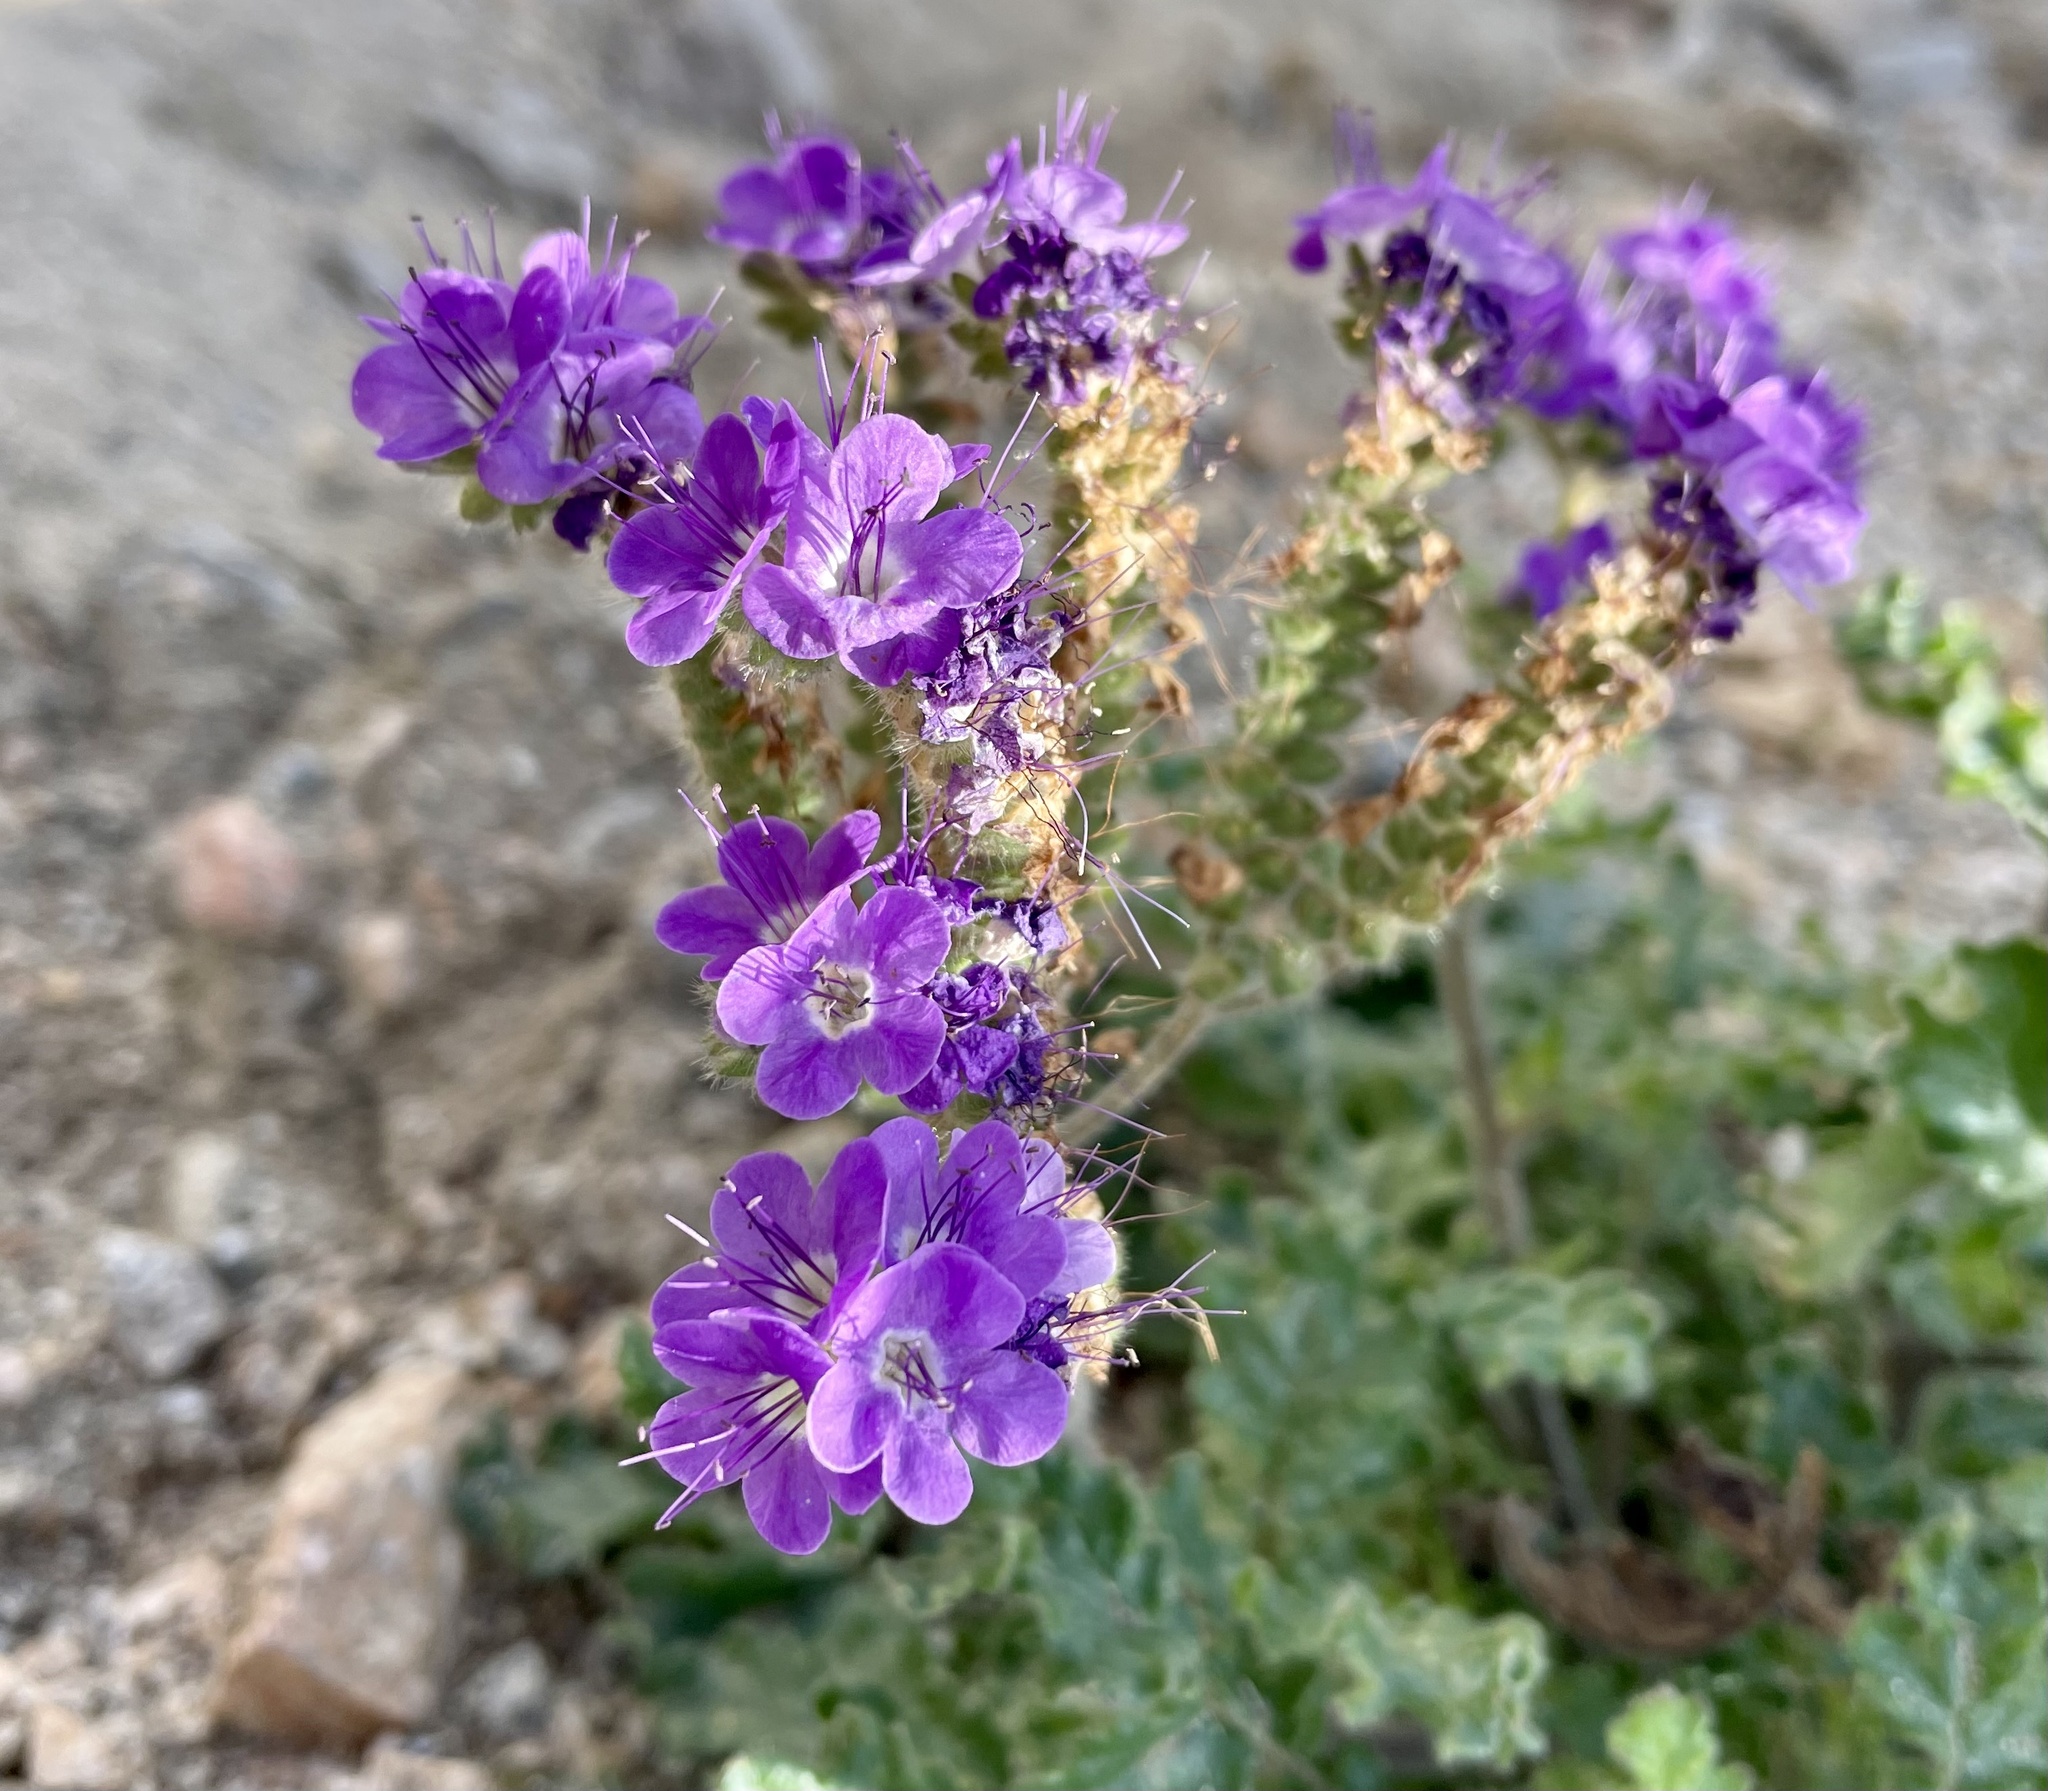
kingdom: Plantae
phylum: Tracheophyta
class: Magnoliopsida
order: Boraginales
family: Hydrophyllaceae
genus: Phacelia
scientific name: Phacelia crenulata
